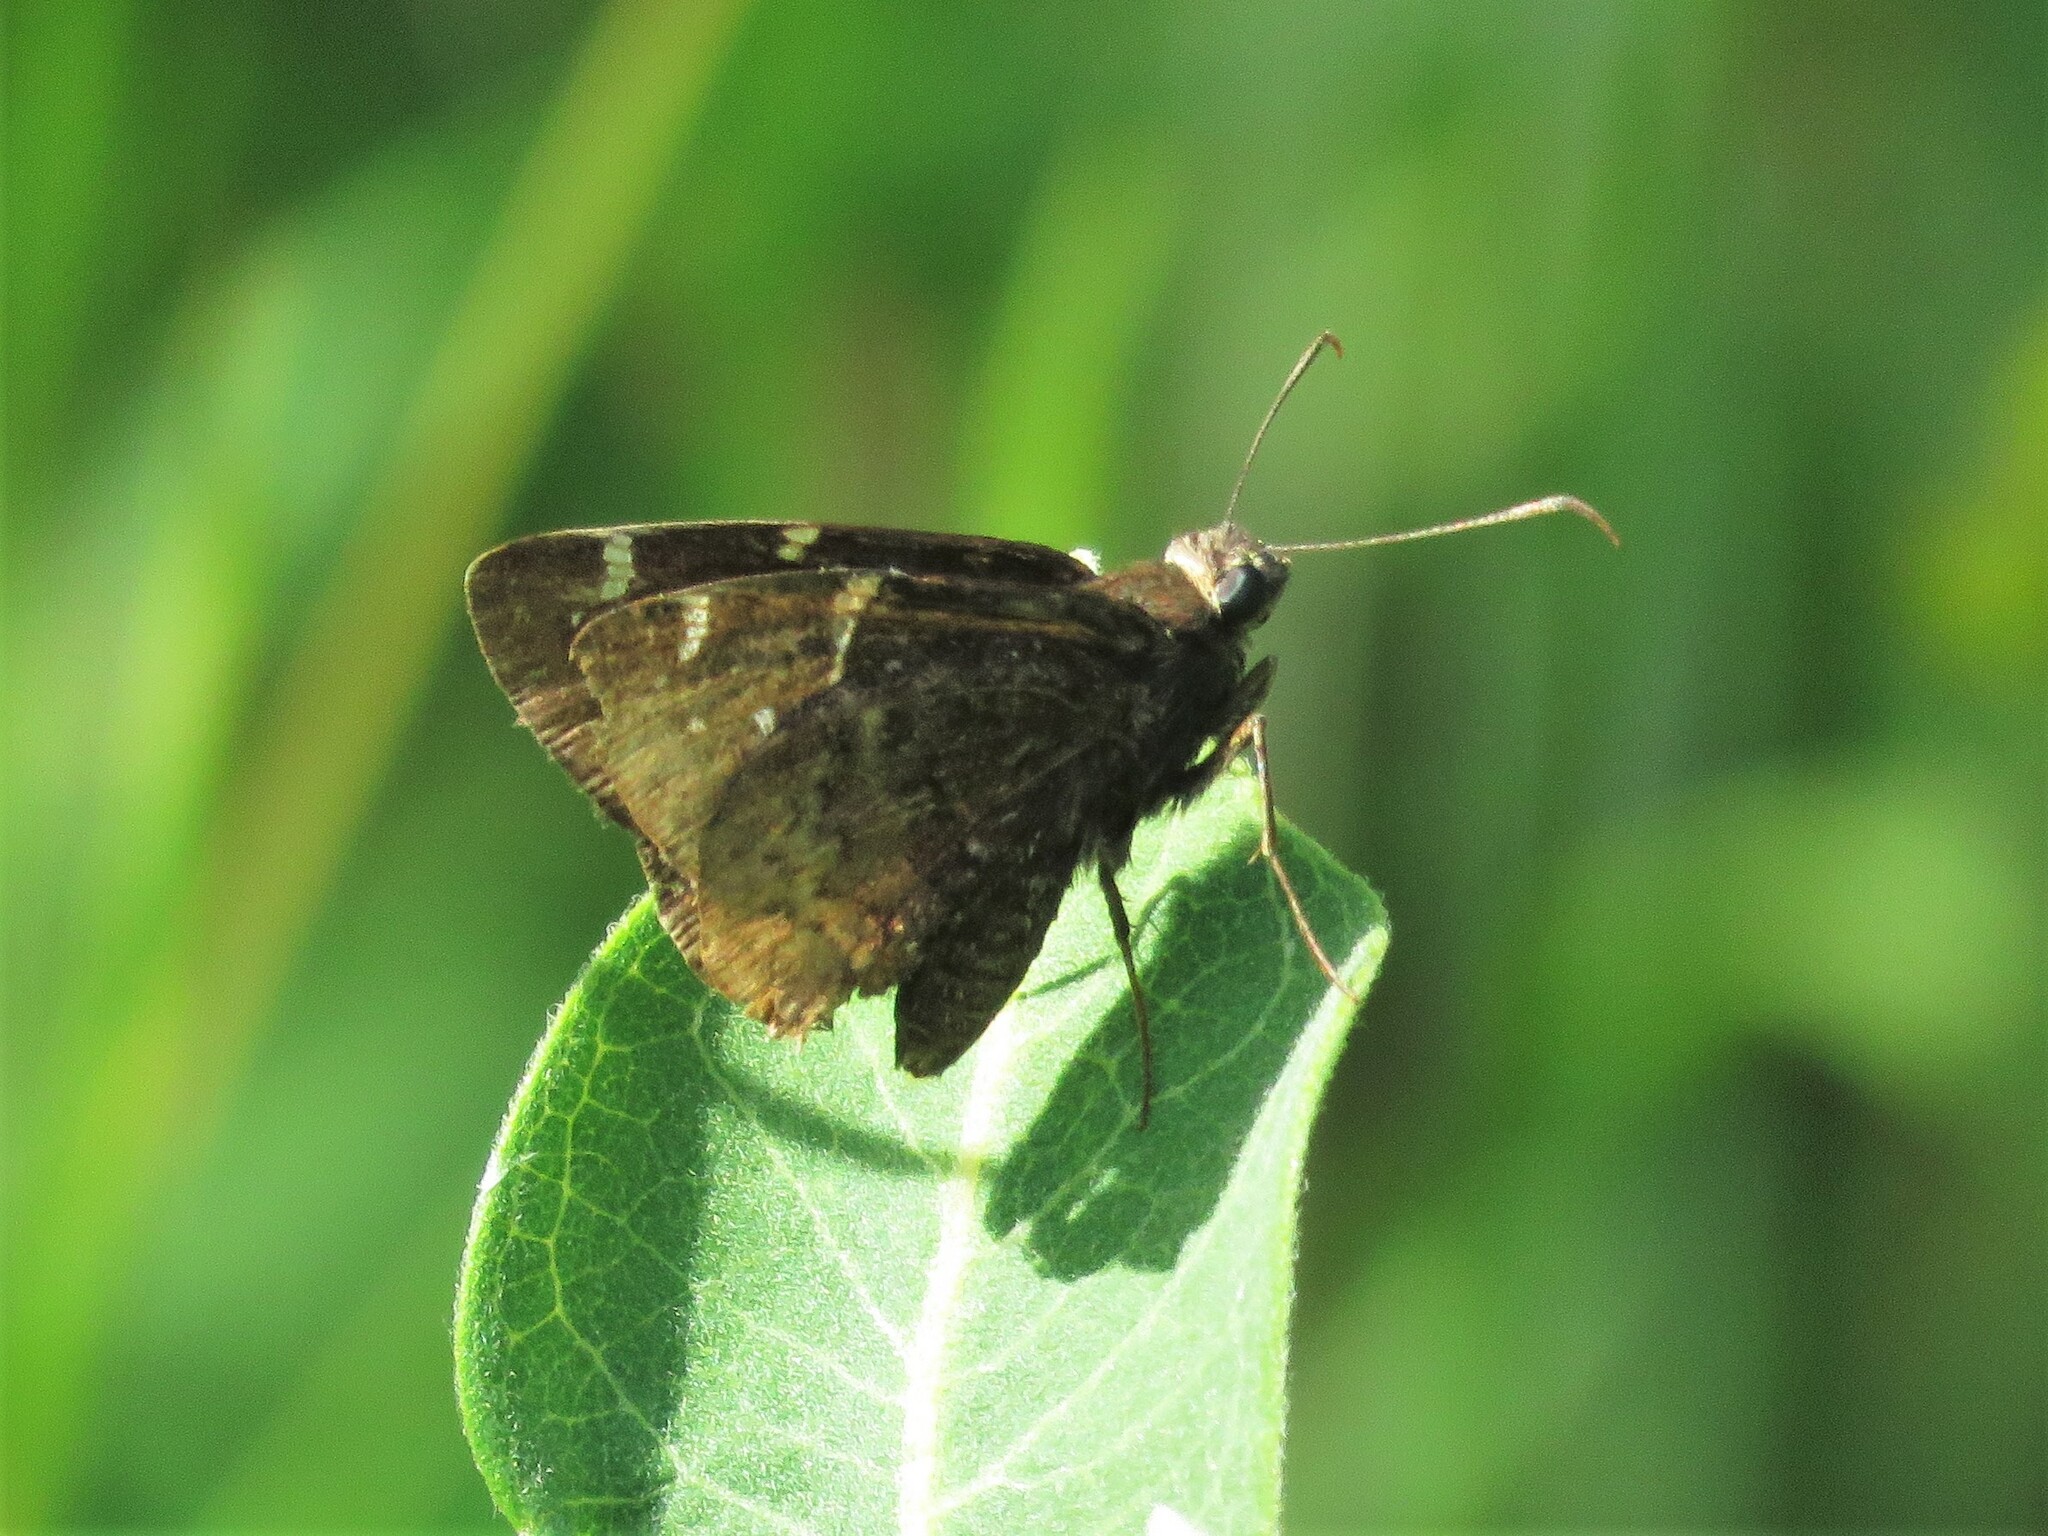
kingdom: Animalia
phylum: Arthropoda
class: Insecta
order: Lepidoptera
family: Hesperiidae
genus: Thorybes
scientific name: Thorybes pylades
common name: Northern cloudywing
